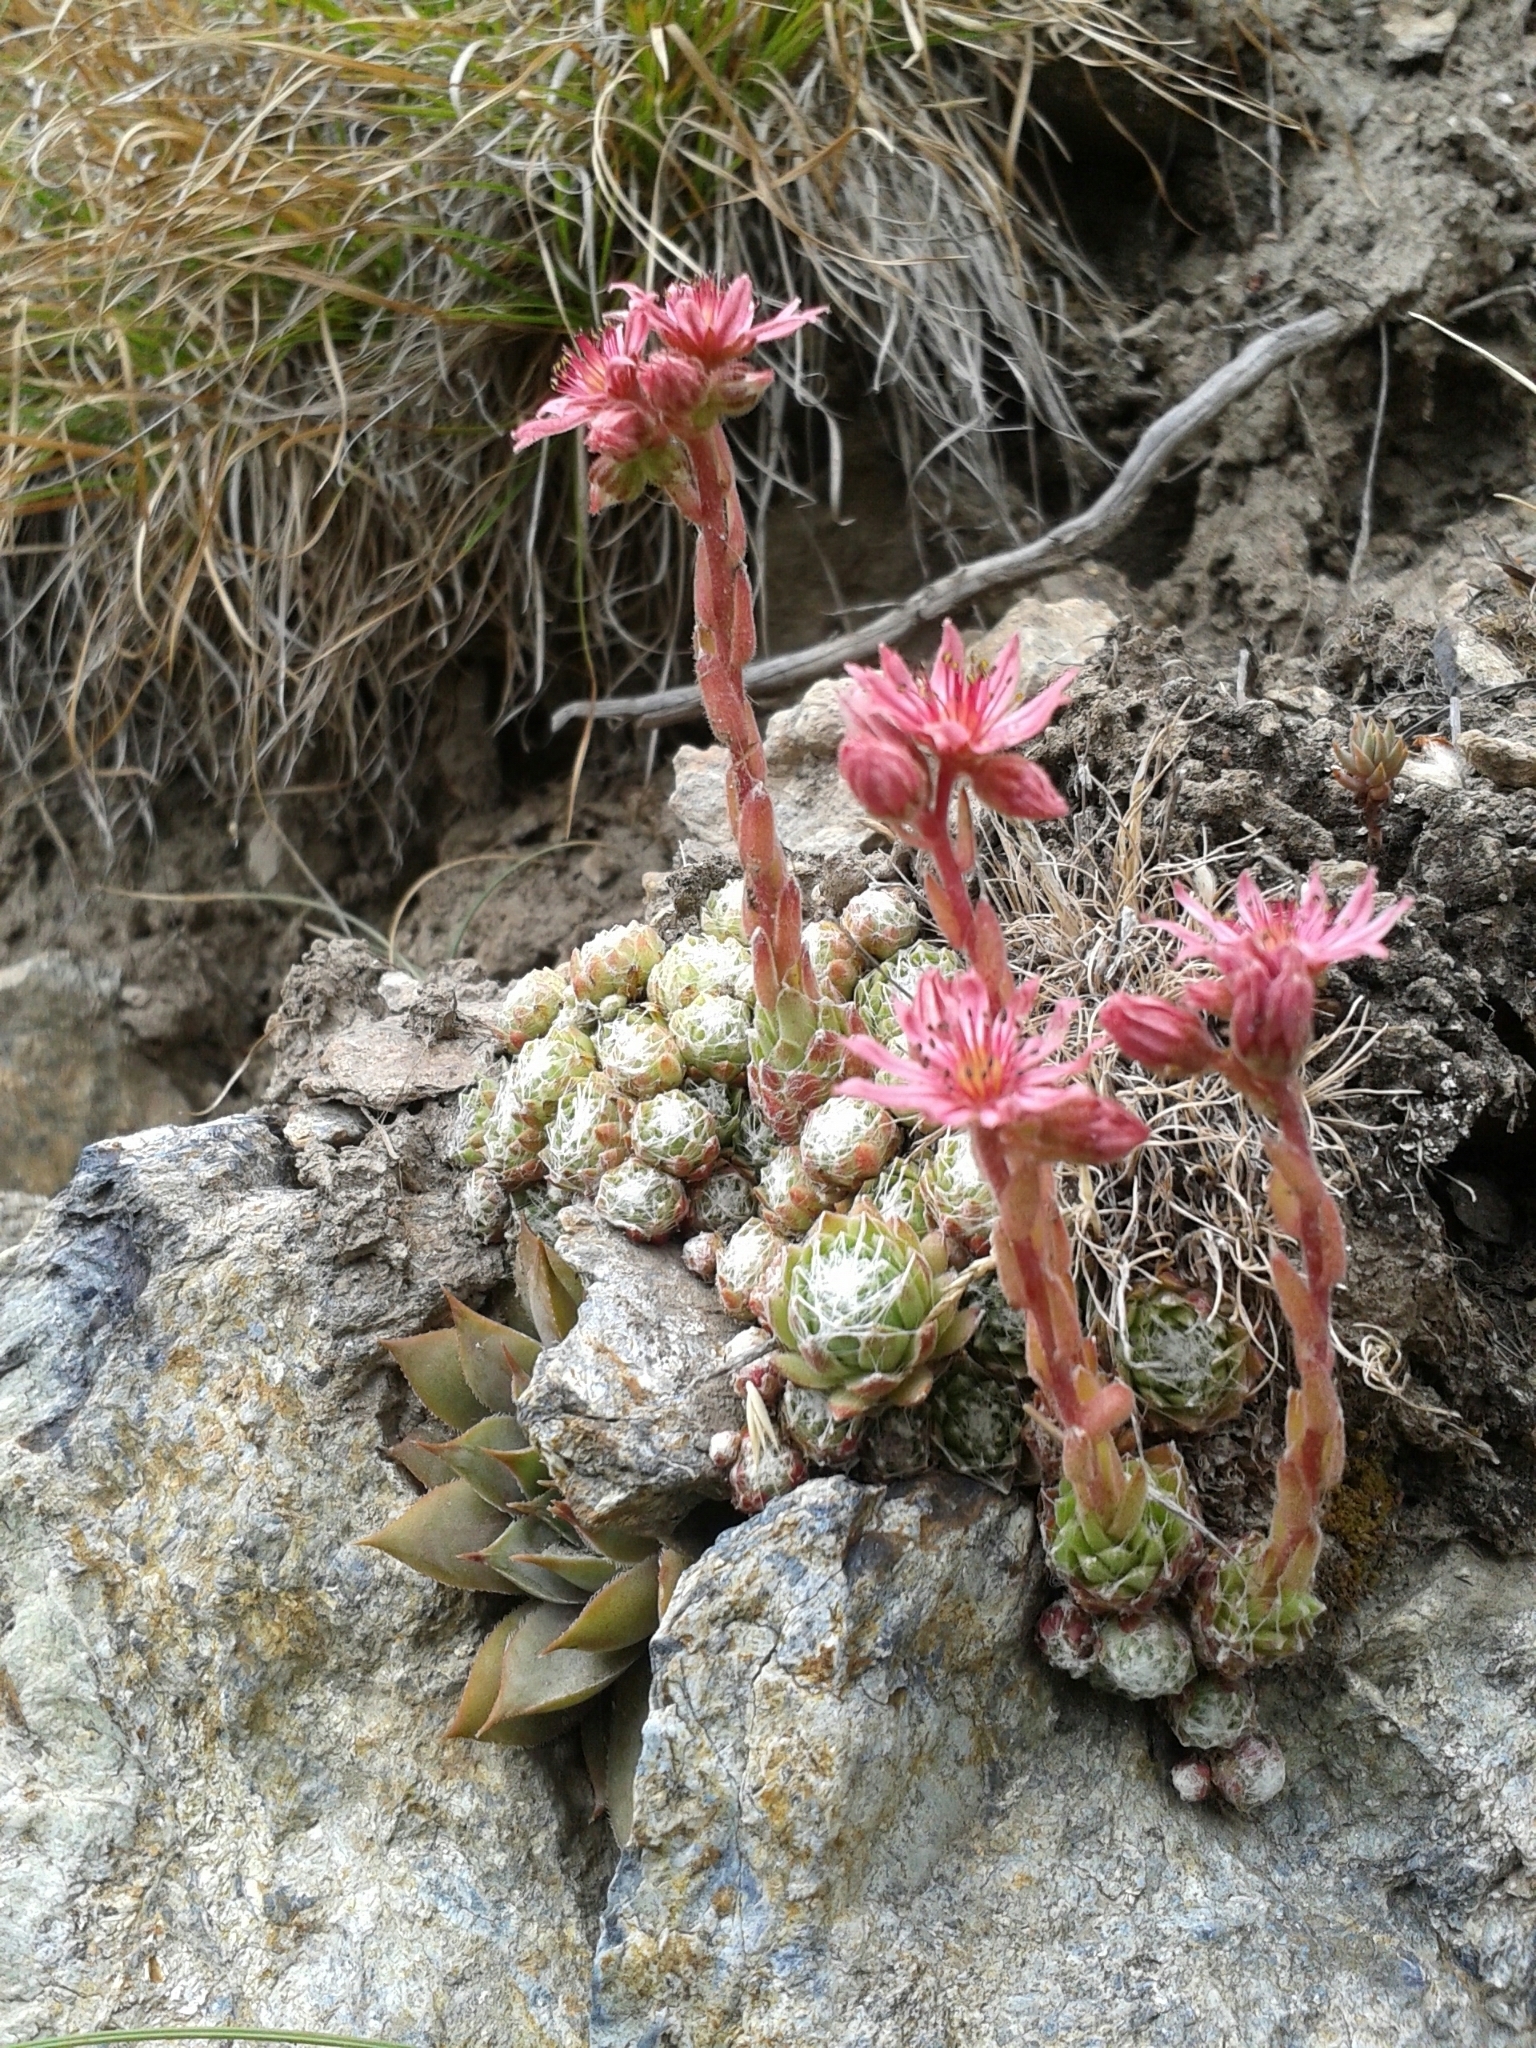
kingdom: Plantae
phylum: Tracheophyta
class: Magnoliopsida
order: Saxifragales
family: Crassulaceae
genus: Sempervivum
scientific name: Sempervivum arachnoideum
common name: Cobweb house-leek
